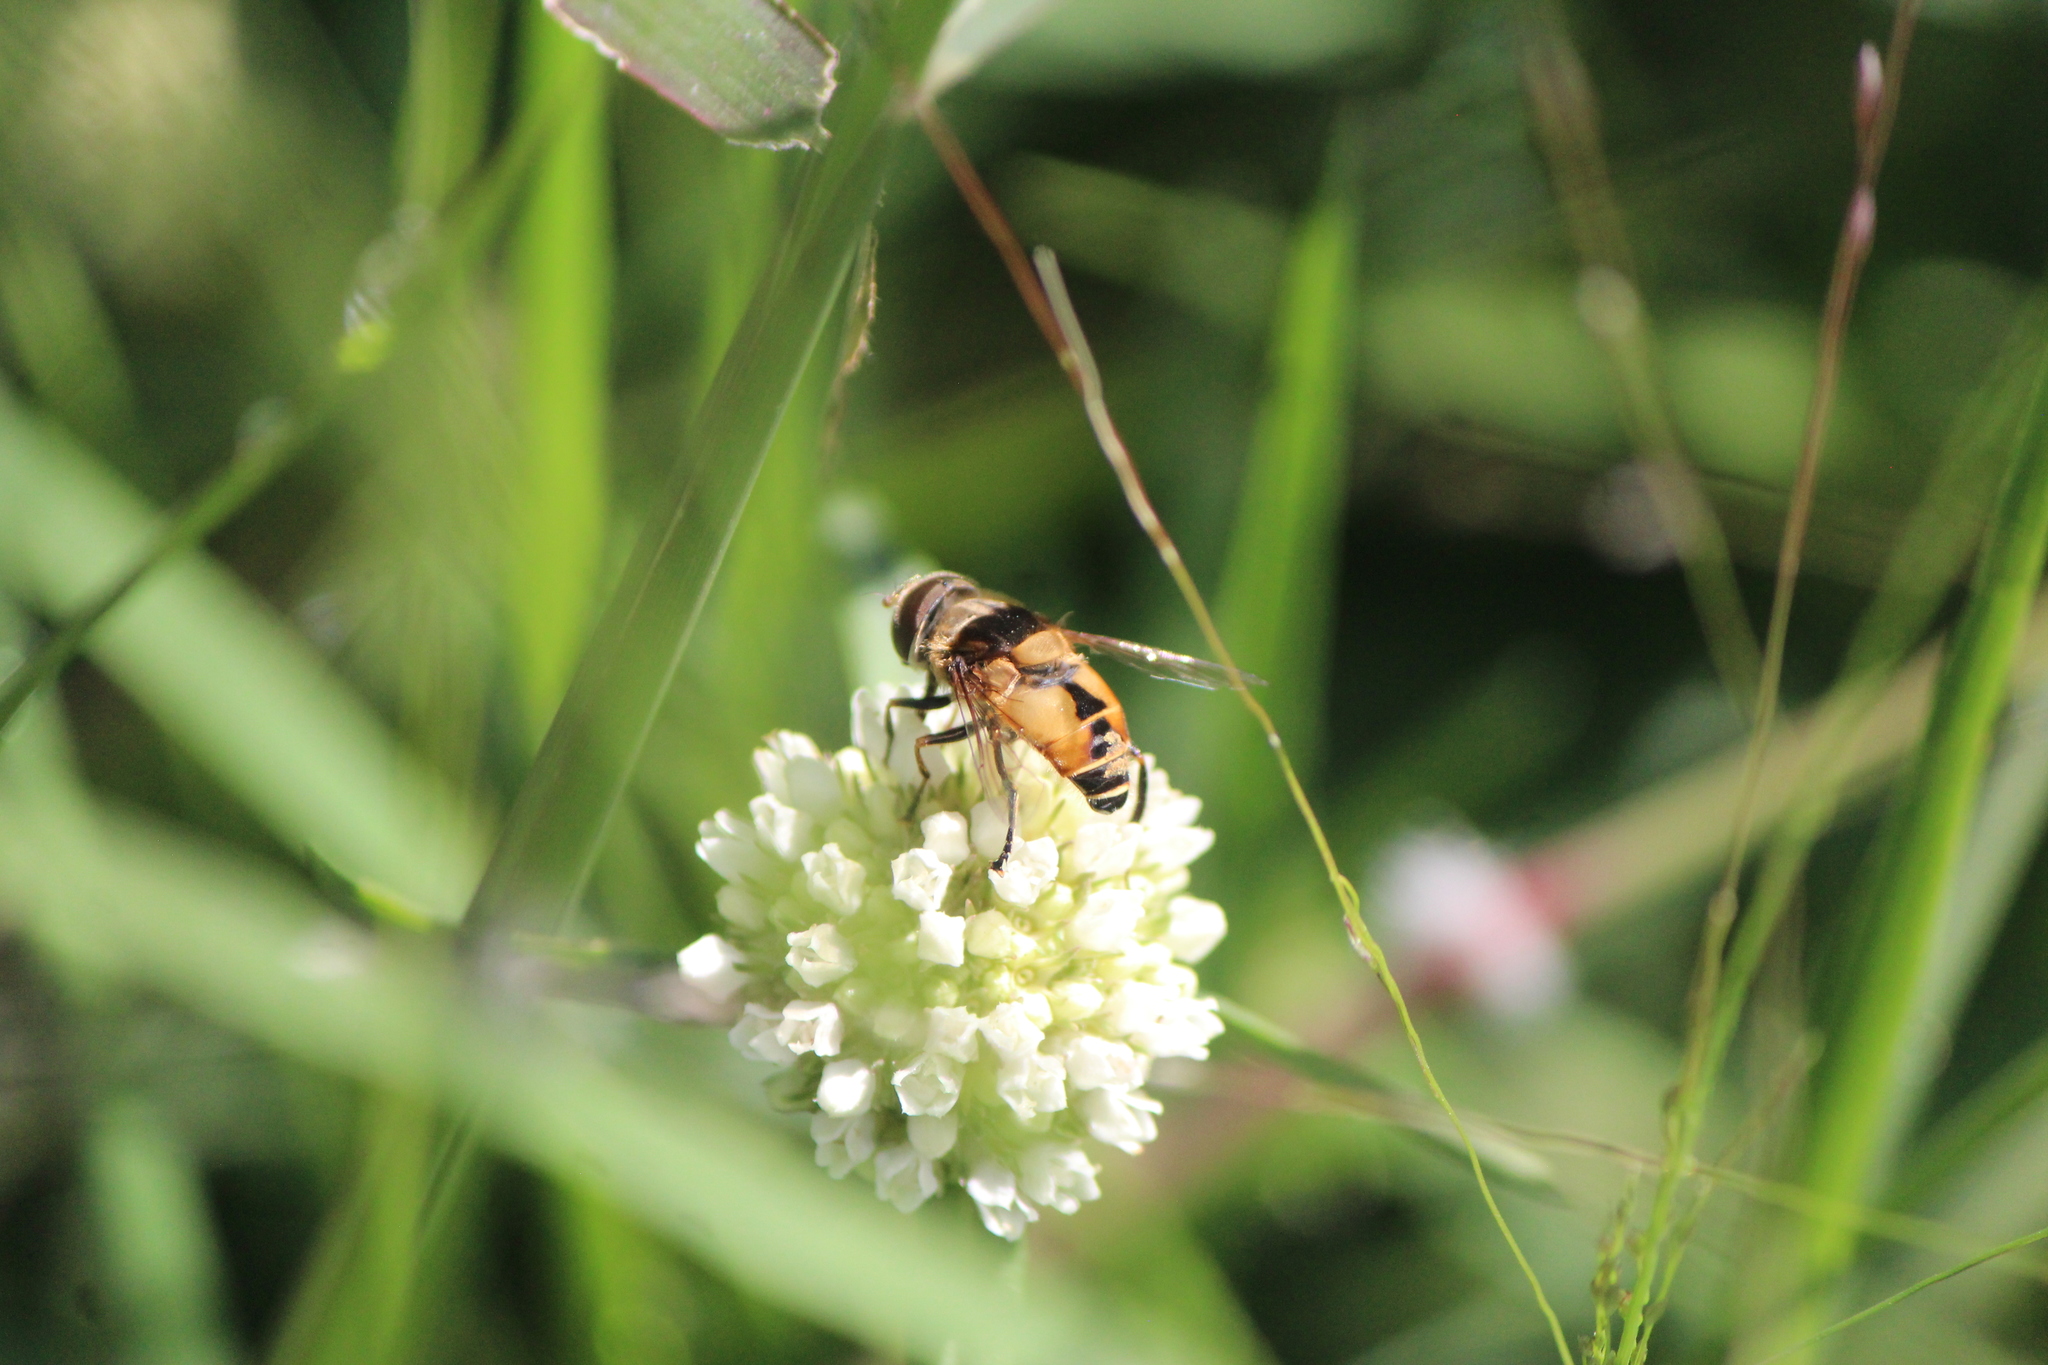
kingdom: Animalia
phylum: Arthropoda
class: Insecta
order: Diptera
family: Syrphidae
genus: Palpada
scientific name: Palpada pusilla
